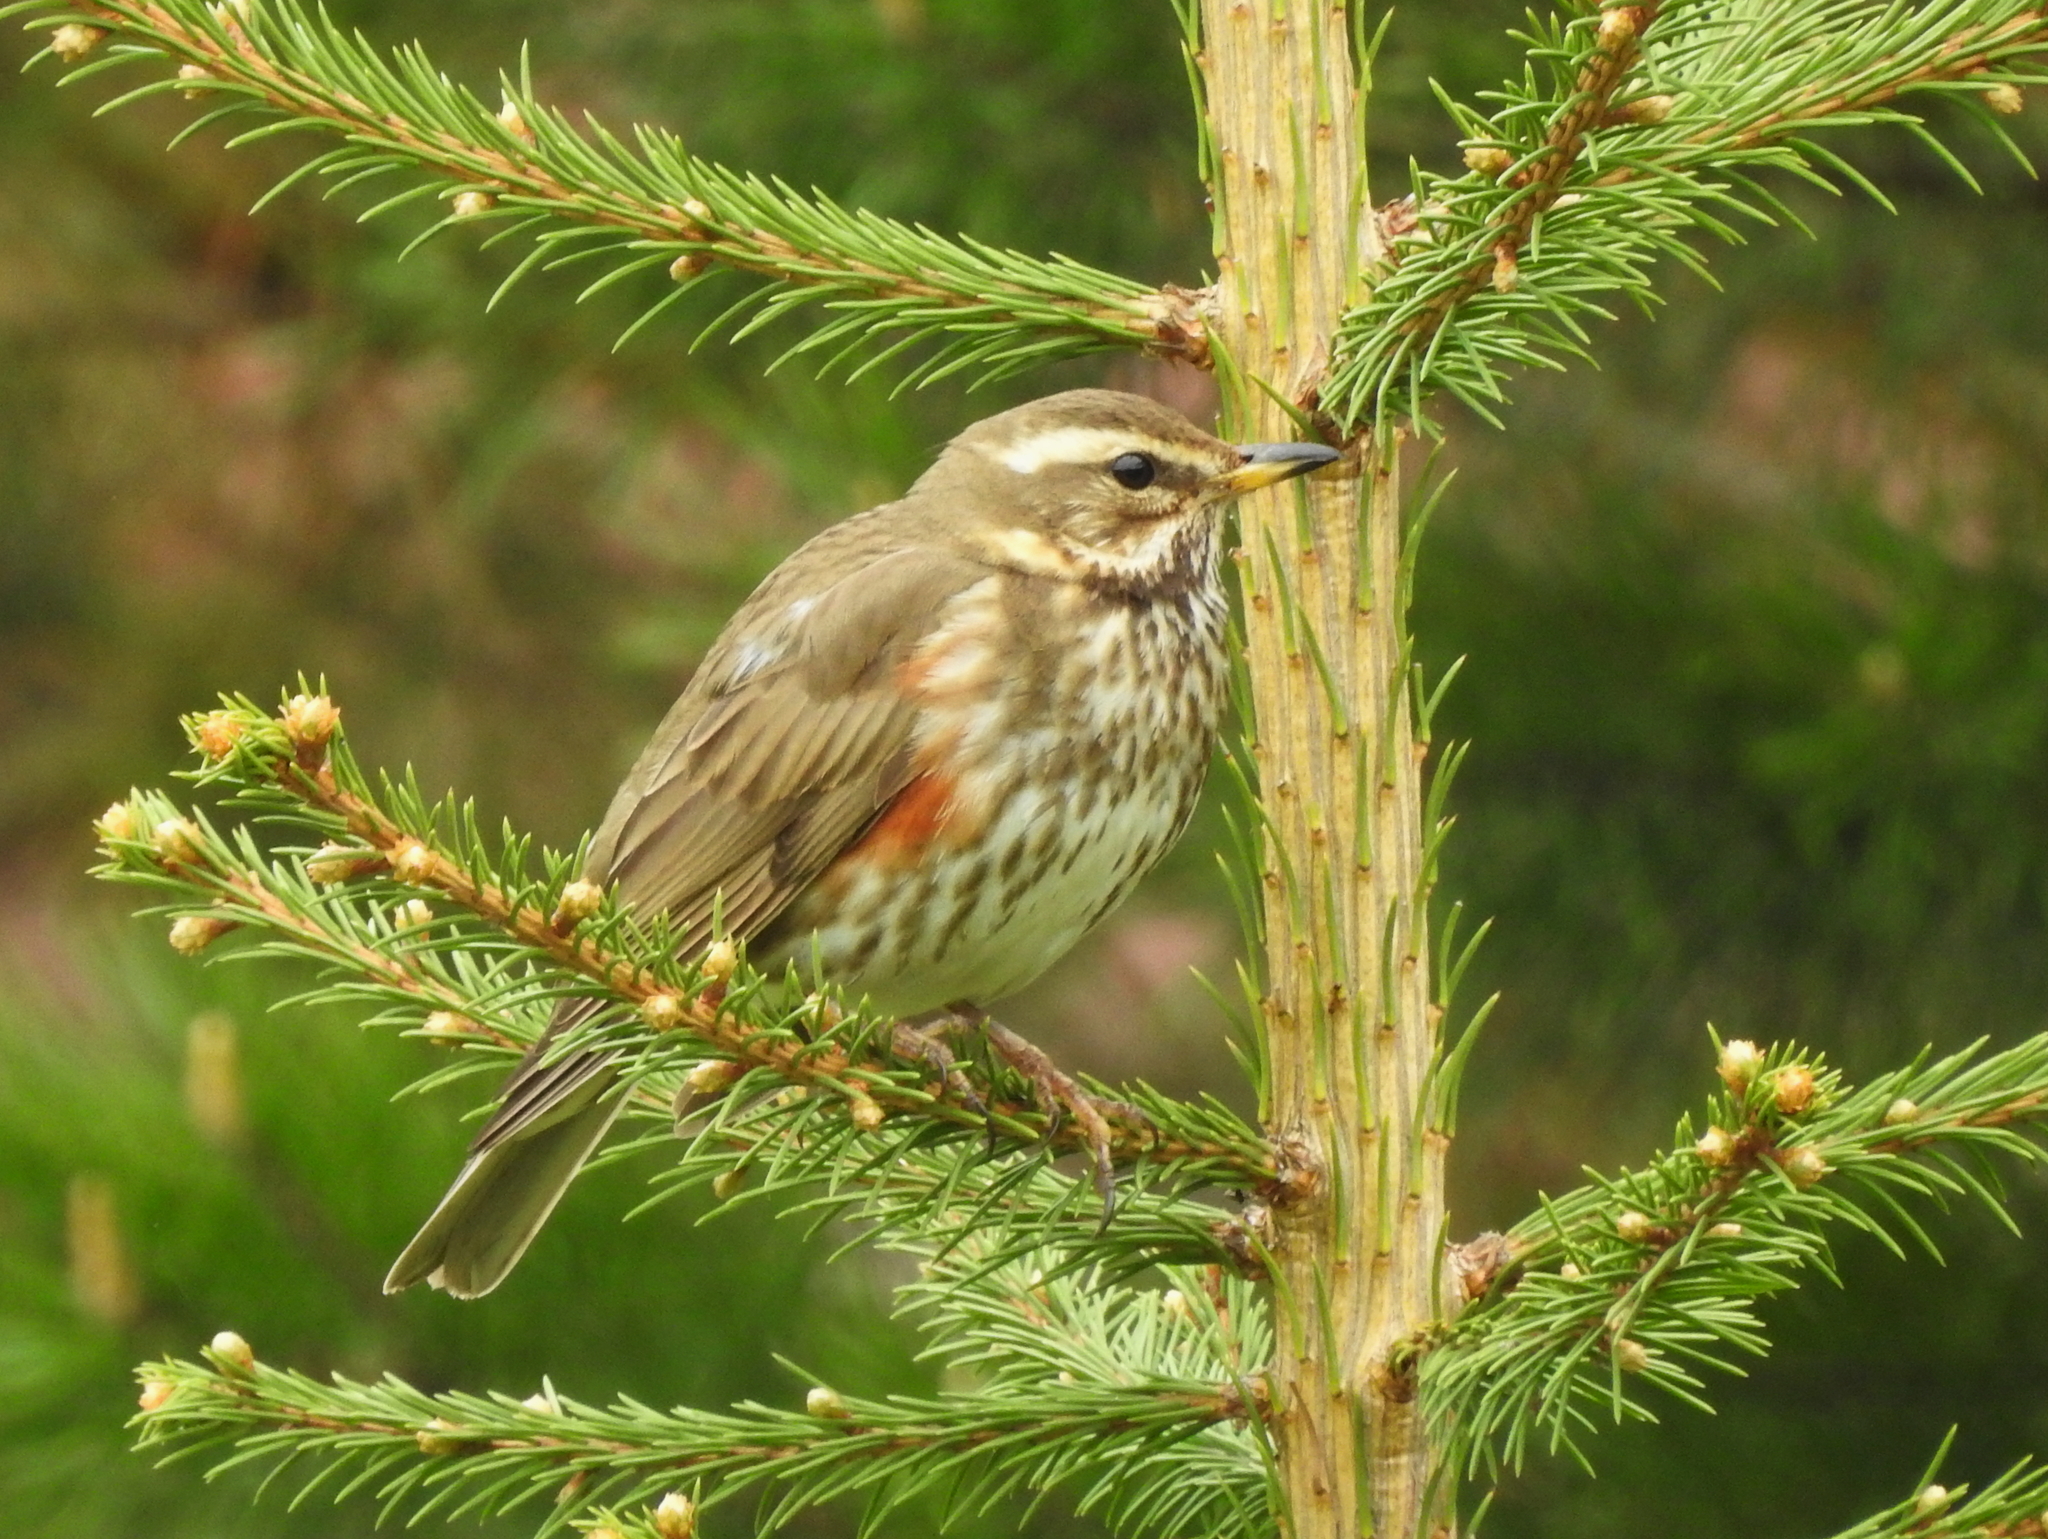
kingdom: Animalia
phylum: Chordata
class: Aves
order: Passeriformes
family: Turdidae
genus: Turdus
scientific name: Turdus iliacus
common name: Redwing
